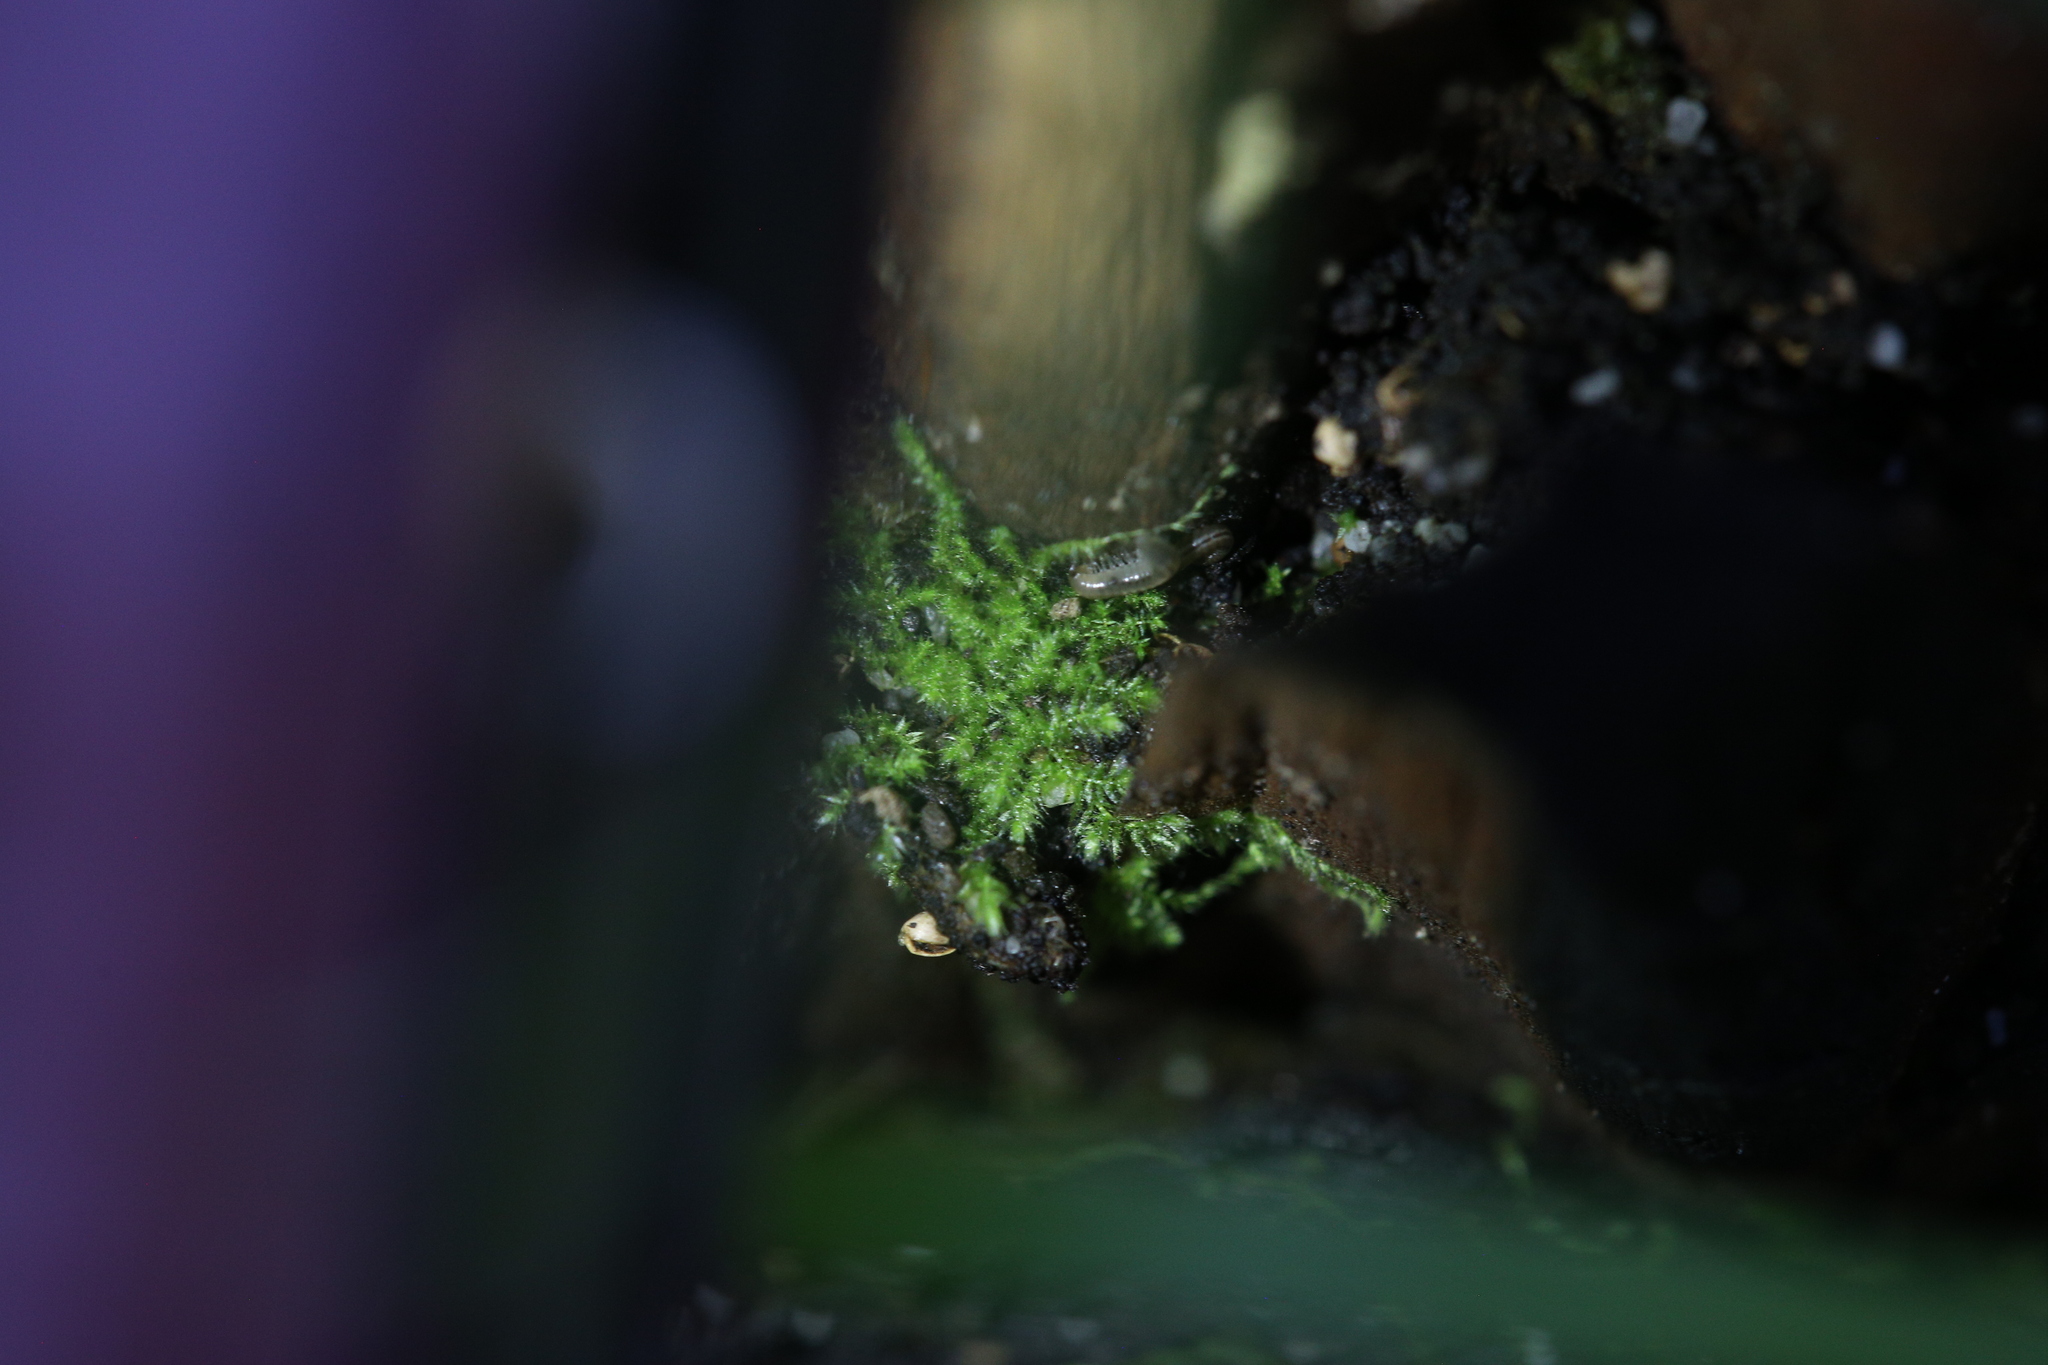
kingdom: Plantae
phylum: Bryophyta
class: Bryopsida
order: Hypnales
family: Fabroniaceae
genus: Fabronia
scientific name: Fabronia hampeana
